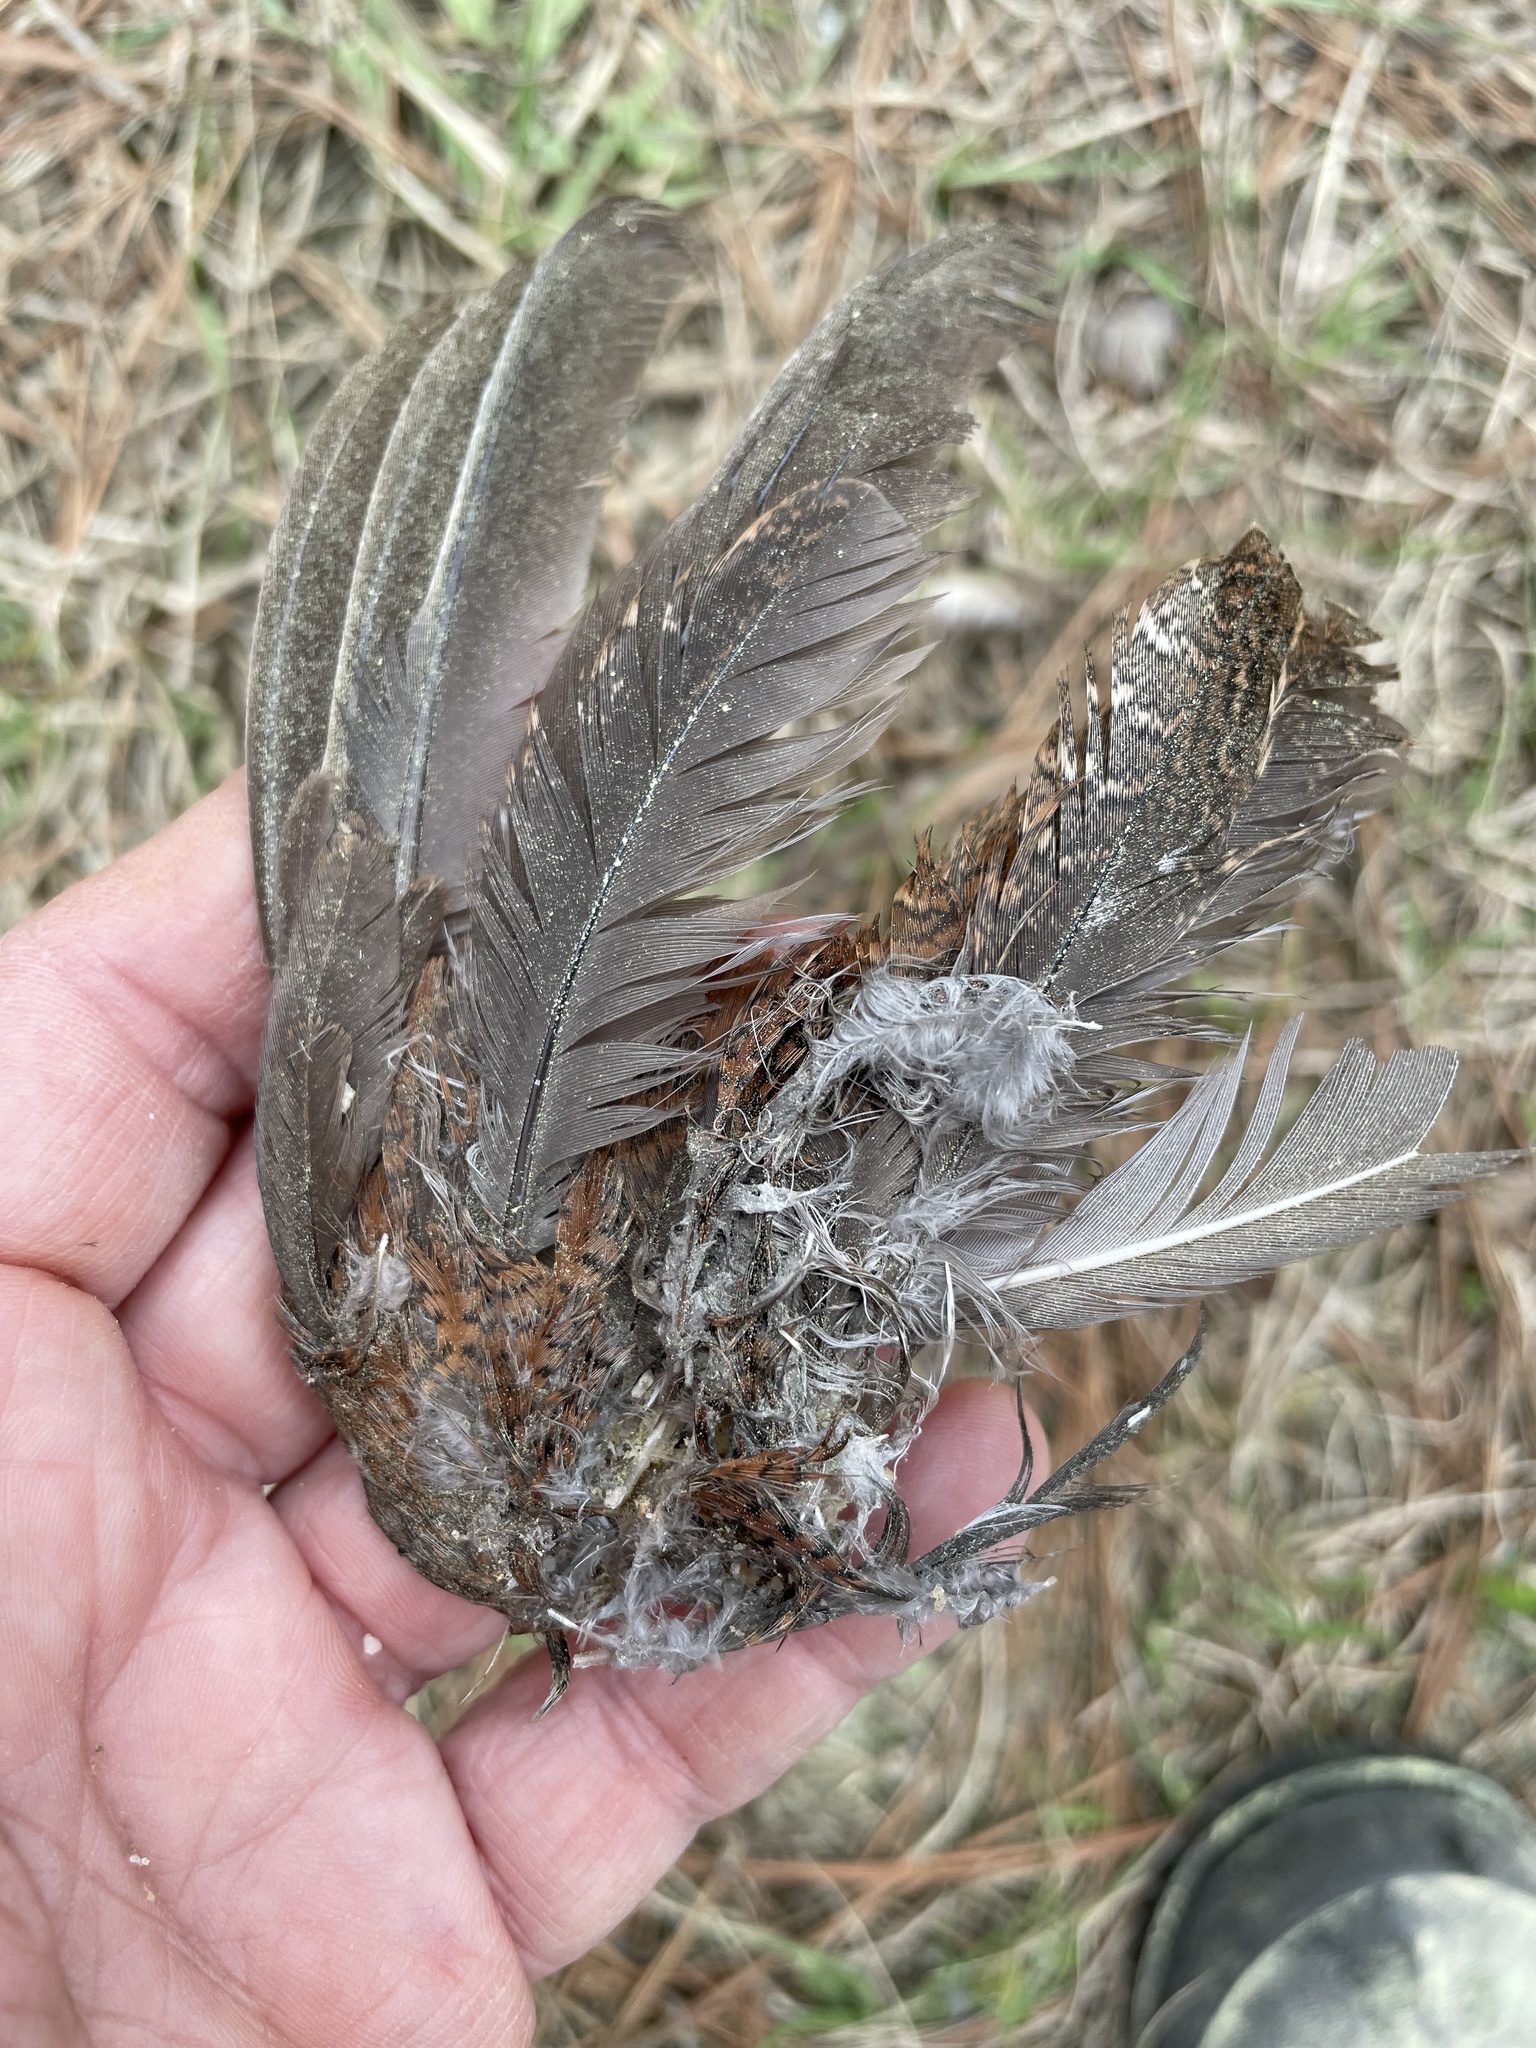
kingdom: Animalia
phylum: Chordata
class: Aves
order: Galliformes
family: Odontophoridae
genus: Colinus
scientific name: Colinus virginianus
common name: Northern bobwhite
